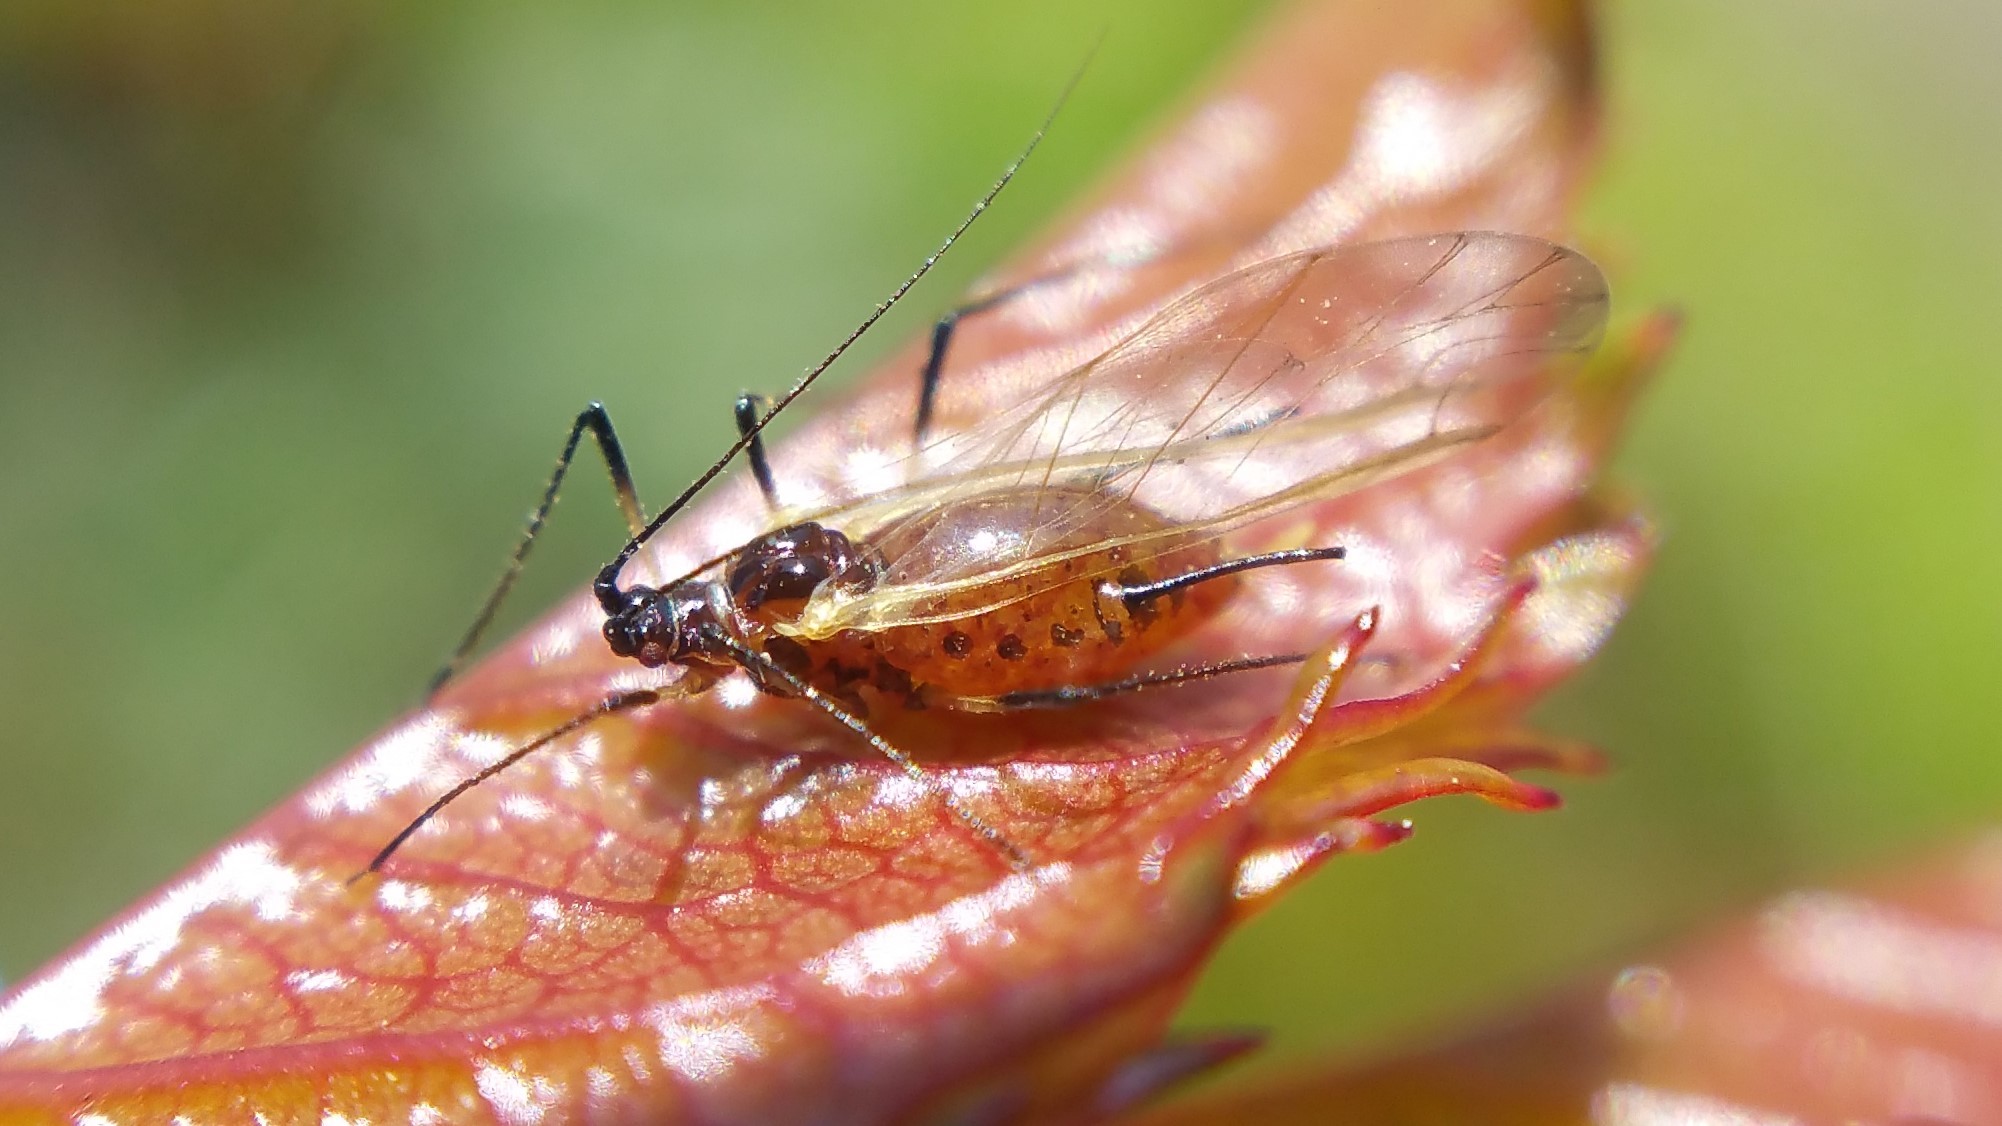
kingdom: Animalia
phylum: Arthropoda
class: Insecta
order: Hemiptera
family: Aphididae
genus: Macrosiphum
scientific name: Macrosiphum rosae
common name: Rose aphid
